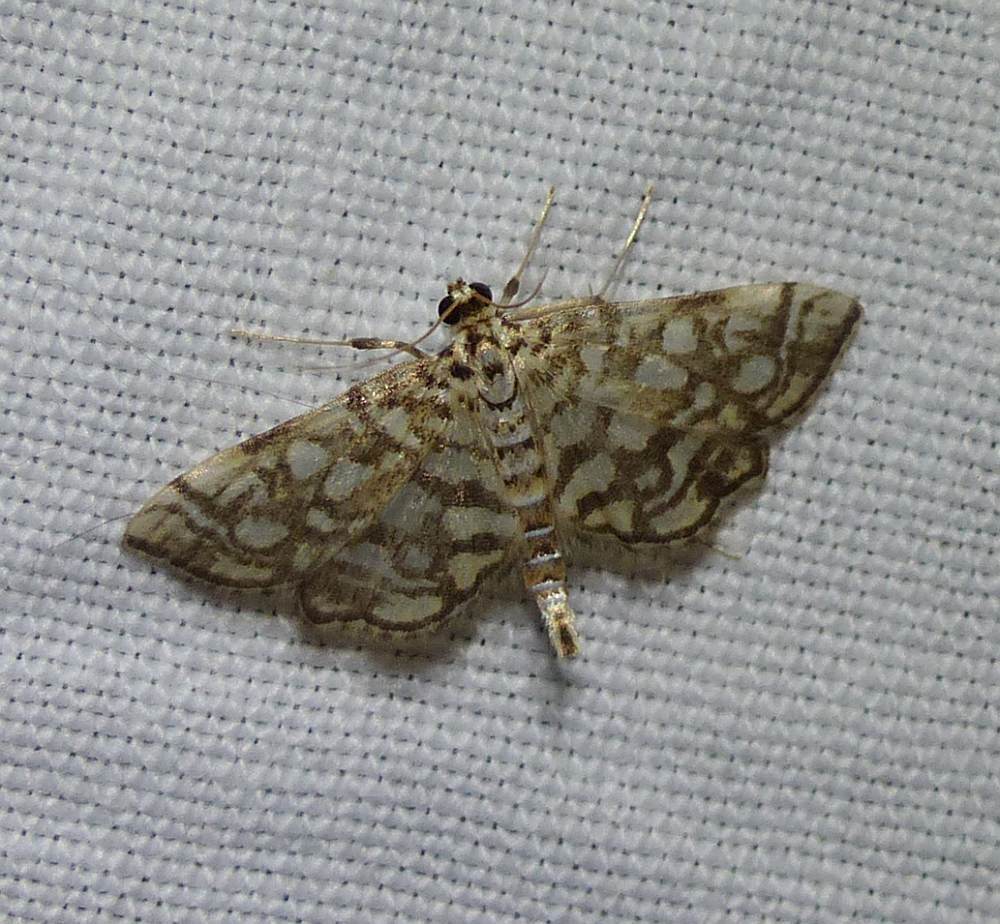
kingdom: Animalia
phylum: Arthropoda
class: Insecta
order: Lepidoptera
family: Crambidae
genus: Lygropia
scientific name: Lygropia rivulalis
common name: Bog lygropia moth
